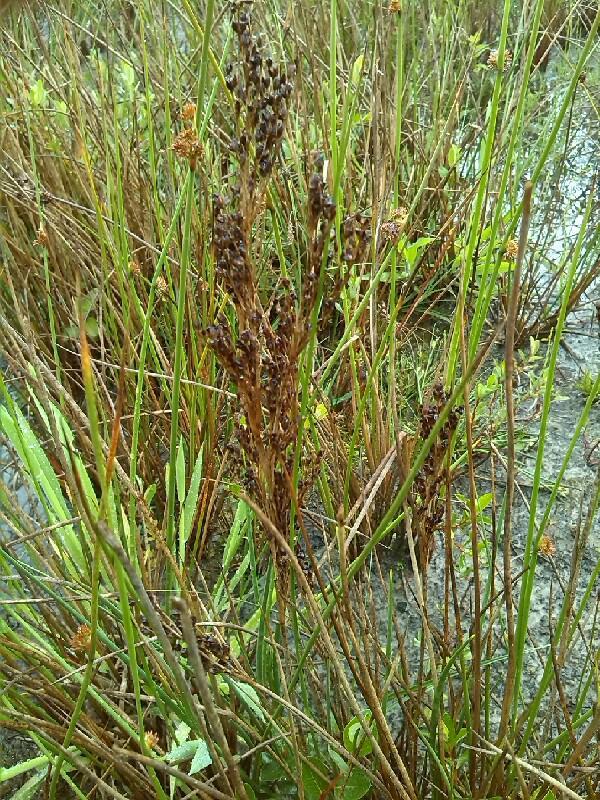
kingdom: Plantae
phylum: Tracheophyta
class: Liliopsida
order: Poales
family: Juncaceae
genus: Juncus
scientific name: Juncus anceps
